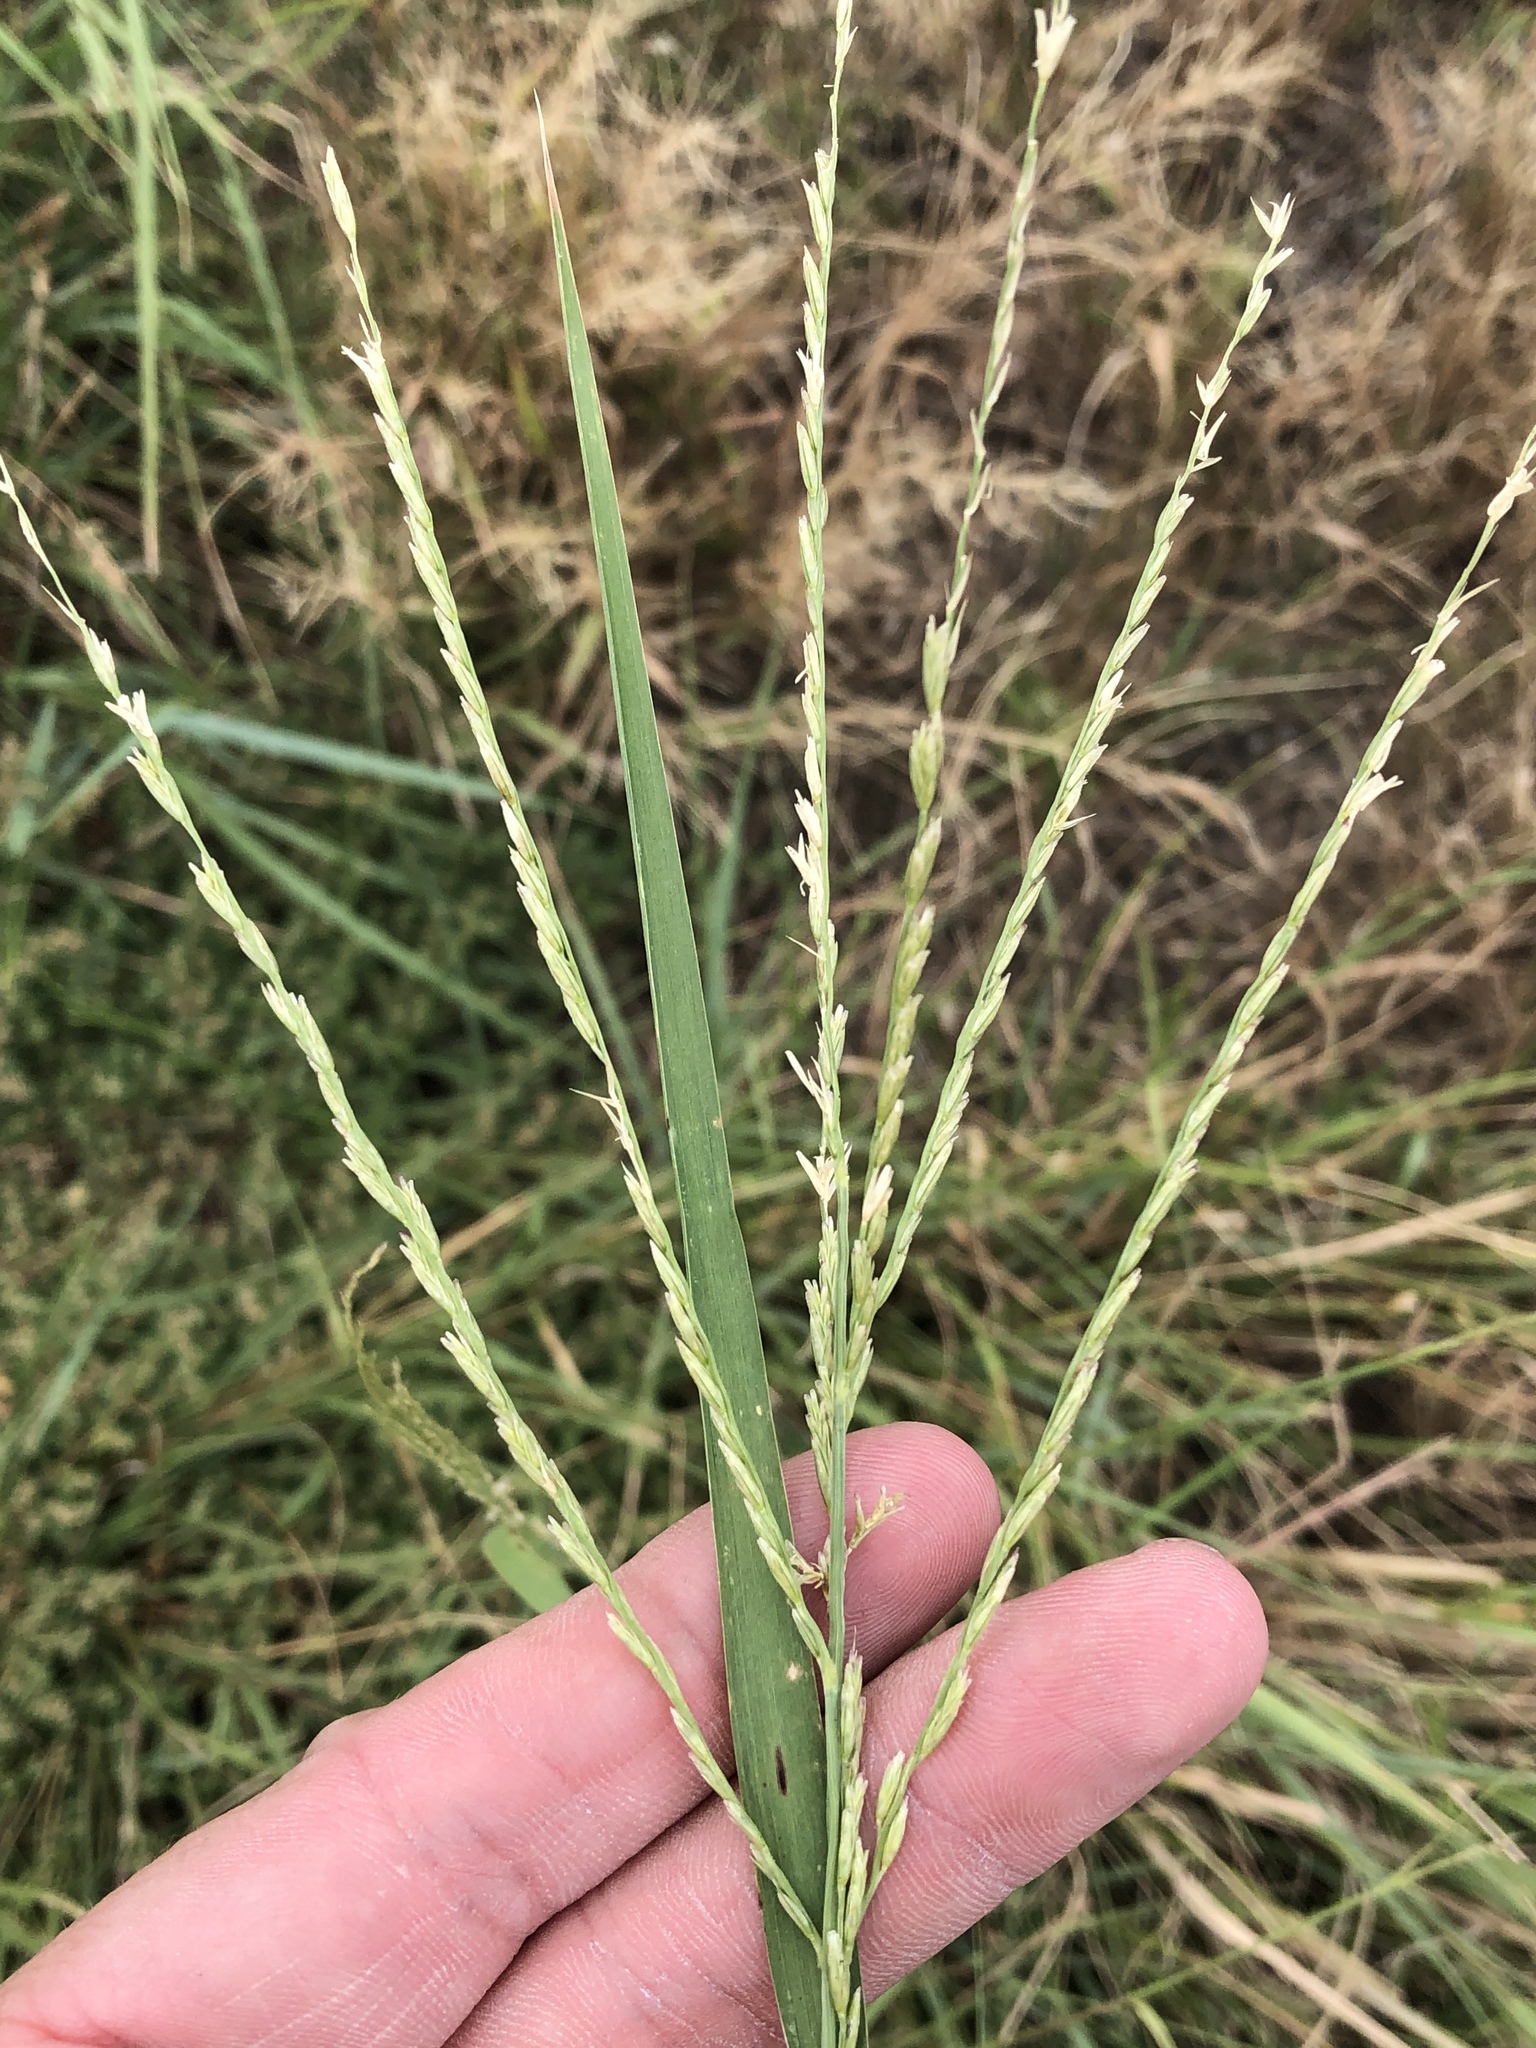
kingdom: Plantae
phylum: Tracheophyta
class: Liliopsida
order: Poales
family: Poaceae
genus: Disakisperma
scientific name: Disakisperma dubium
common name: Green sprangletop
